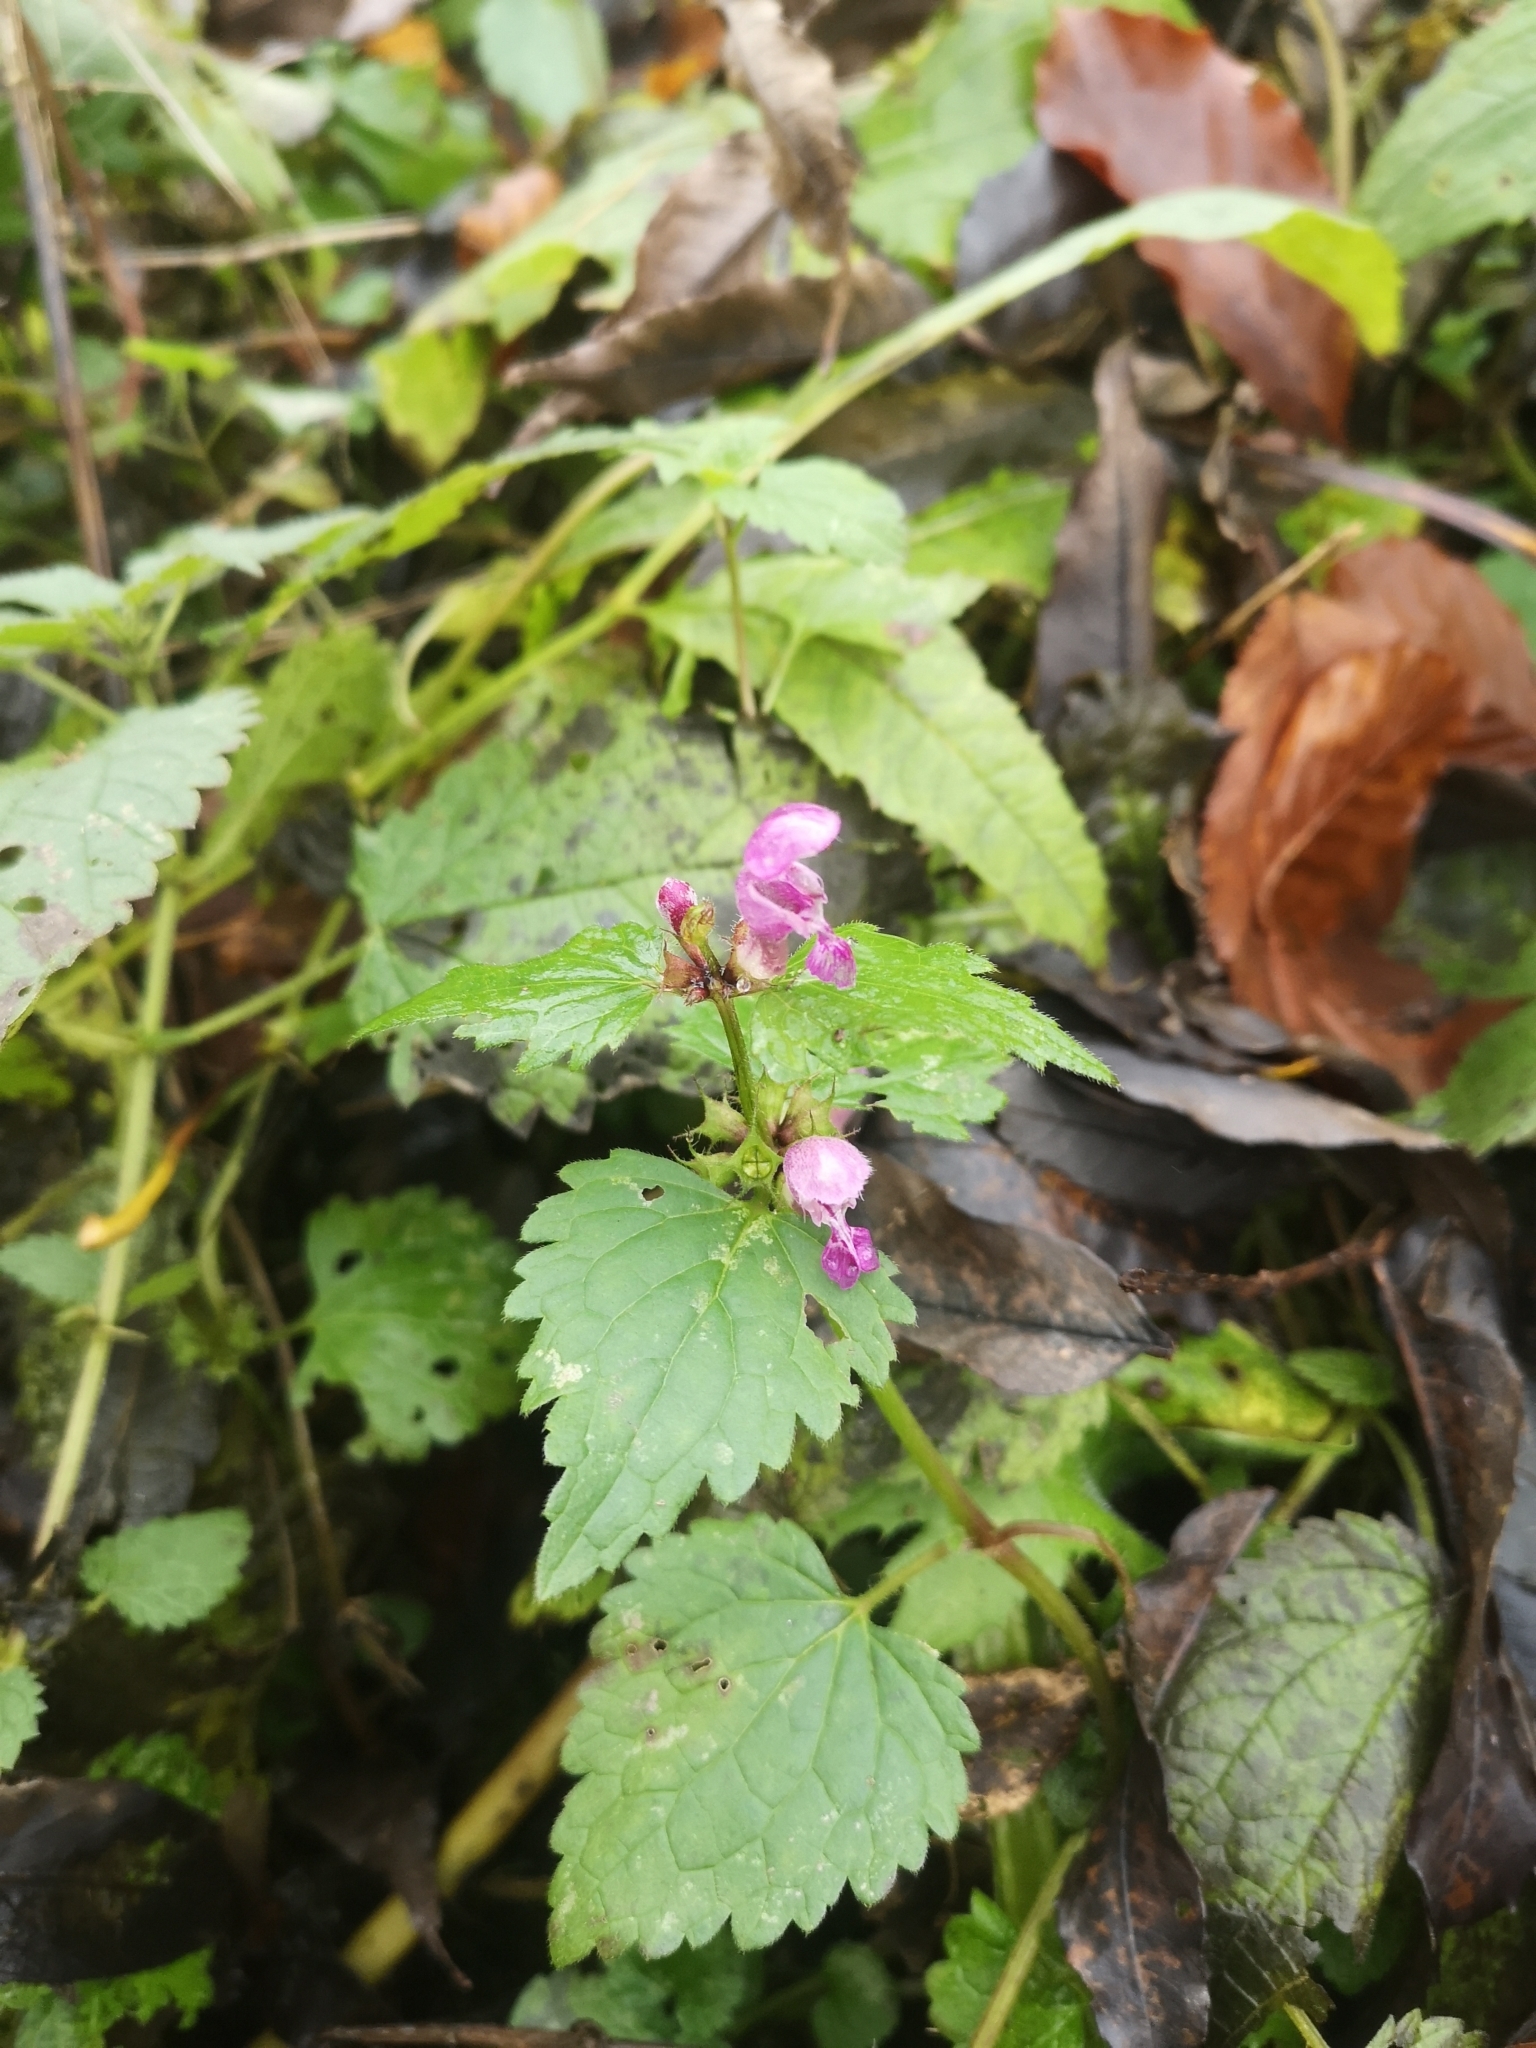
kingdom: Plantae
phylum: Tracheophyta
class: Magnoliopsida
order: Lamiales
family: Lamiaceae
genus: Lamium
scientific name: Lamium maculatum
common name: Spotted dead-nettle
